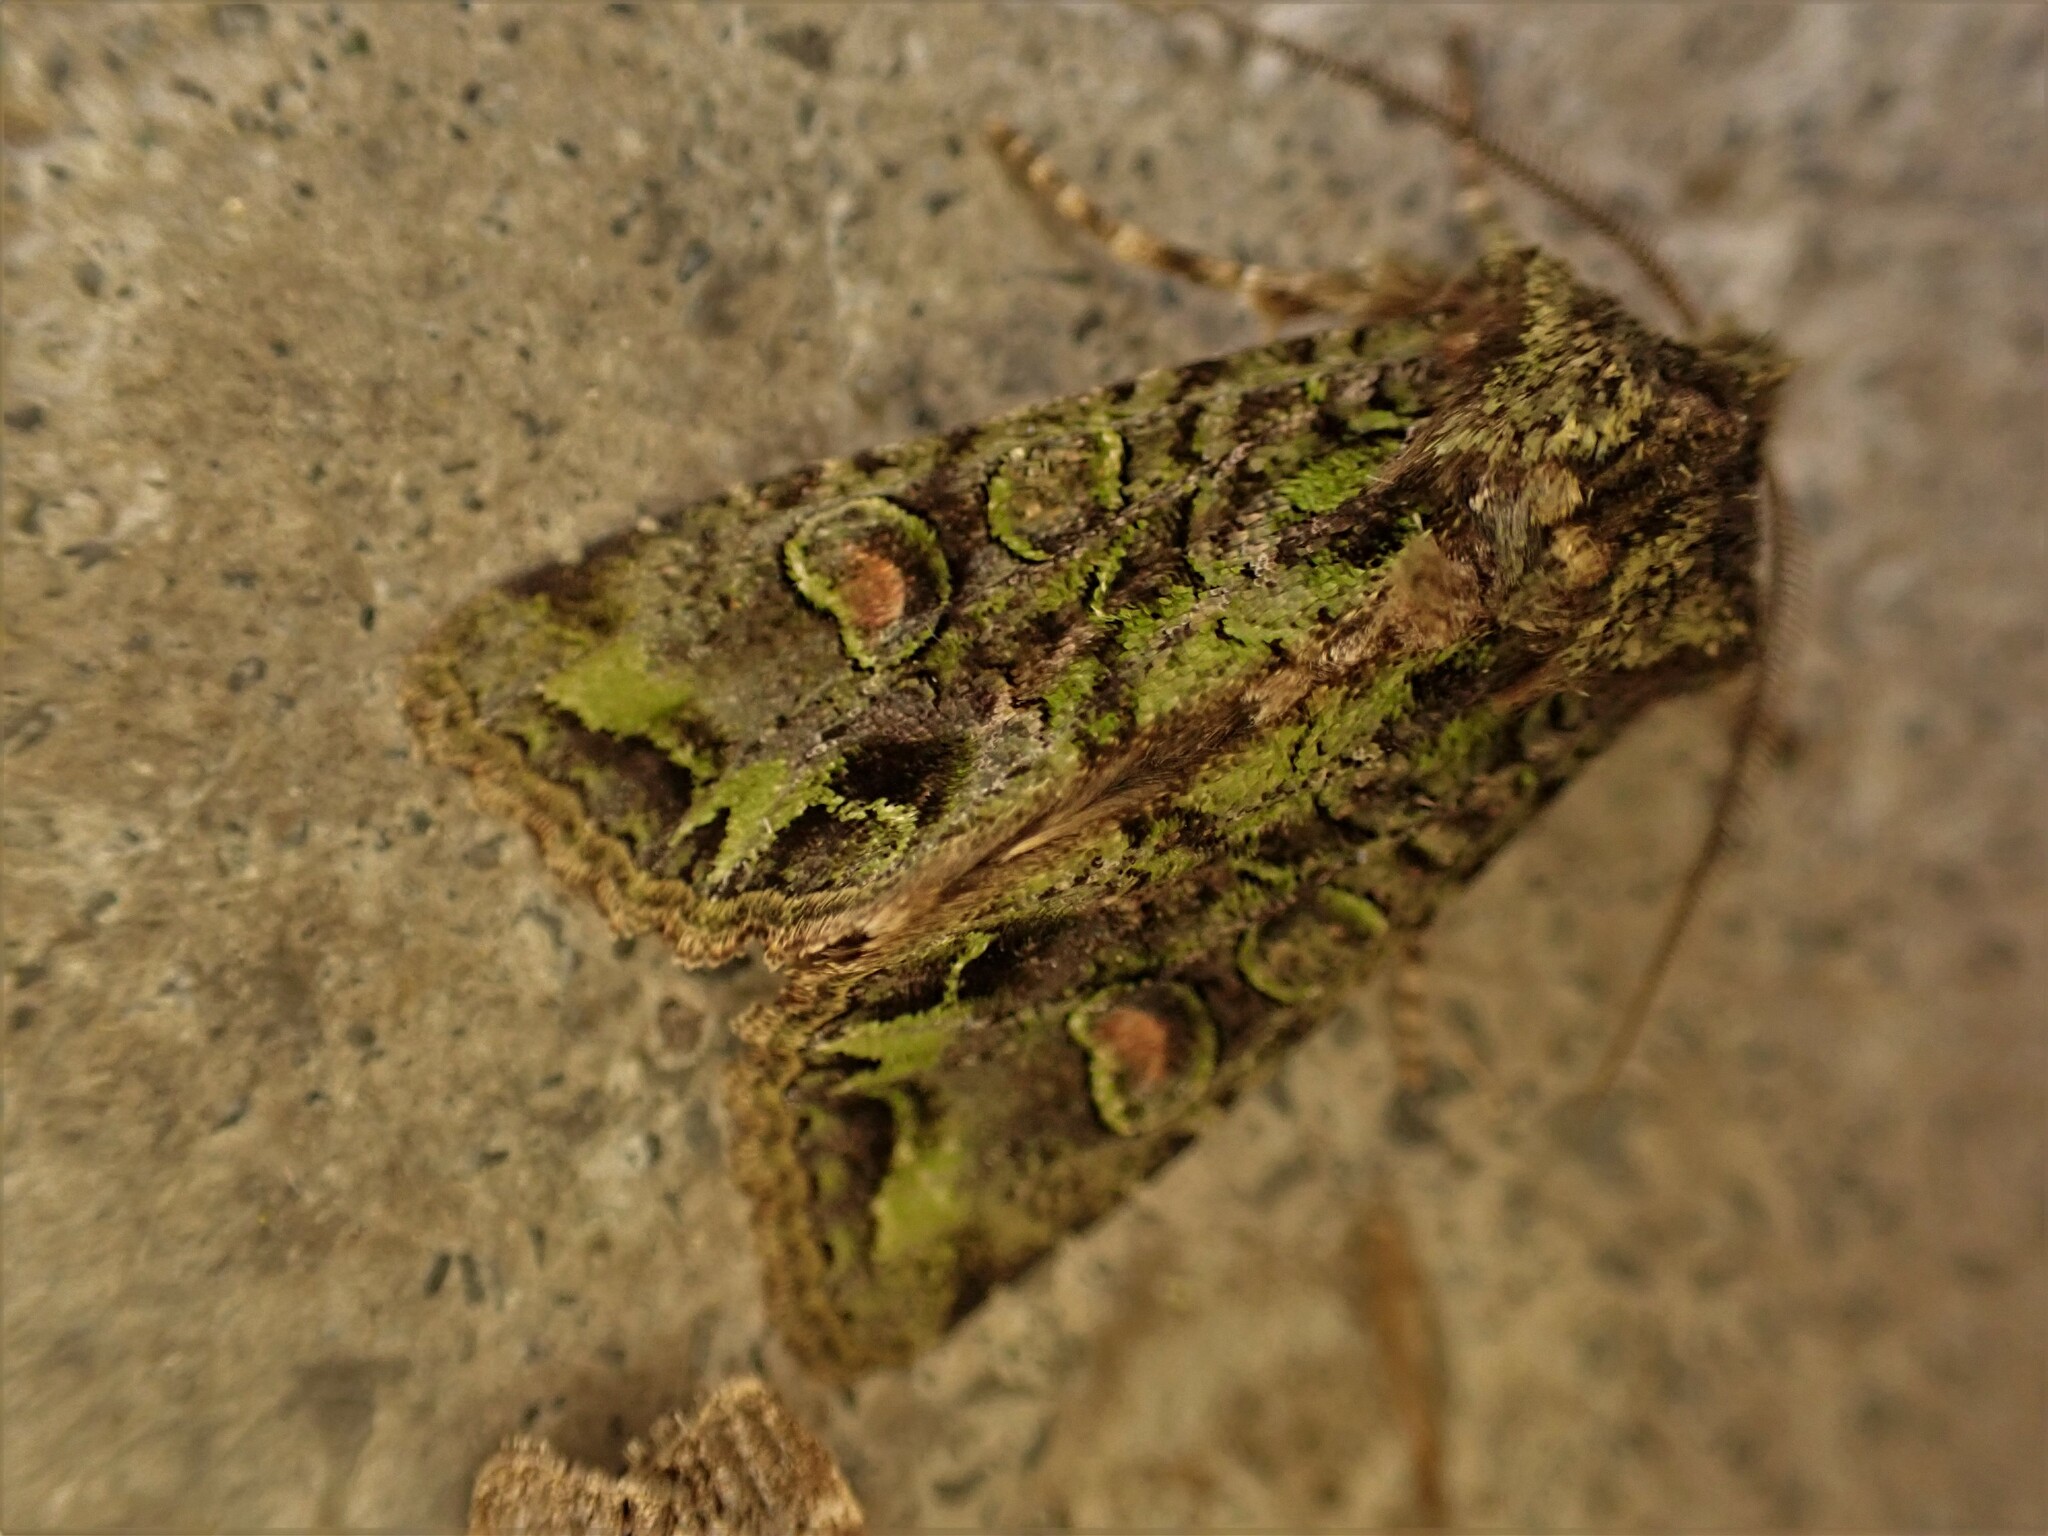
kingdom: Animalia
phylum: Arthropoda
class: Insecta
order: Lepidoptera
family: Noctuidae
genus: Ichneutica
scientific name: Ichneutica
